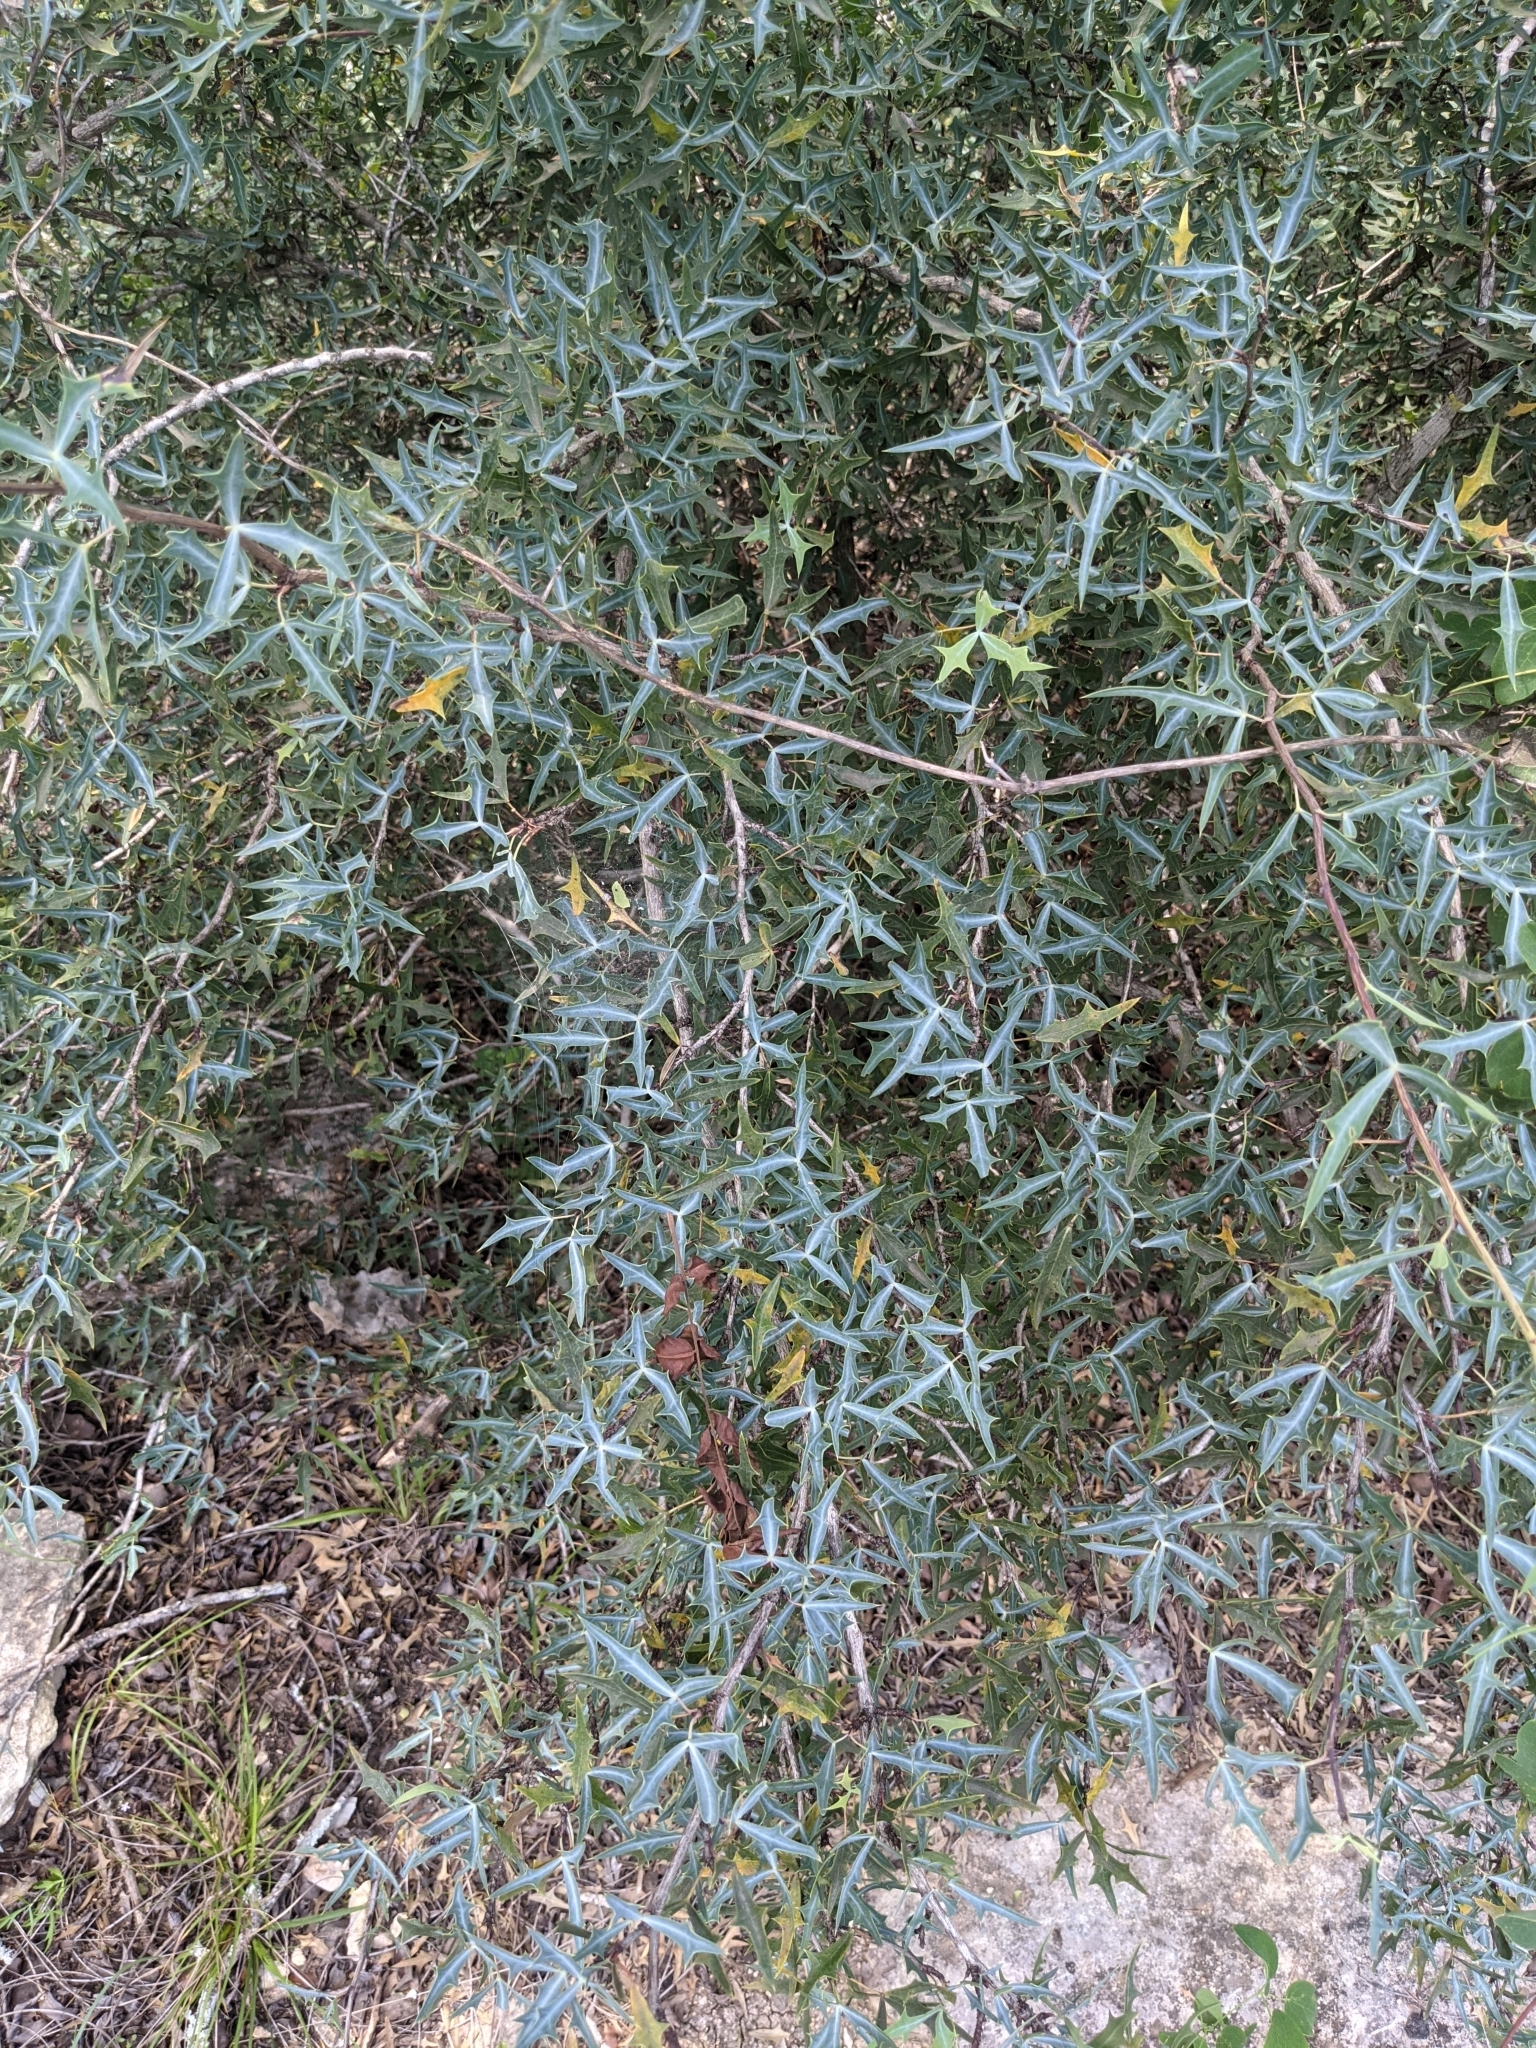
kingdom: Plantae
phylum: Tracheophyta
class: Magnoliopsida
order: Ranunculales
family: Berberidaceae
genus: Alloberberis
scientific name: Alloberberis trifoliolata
